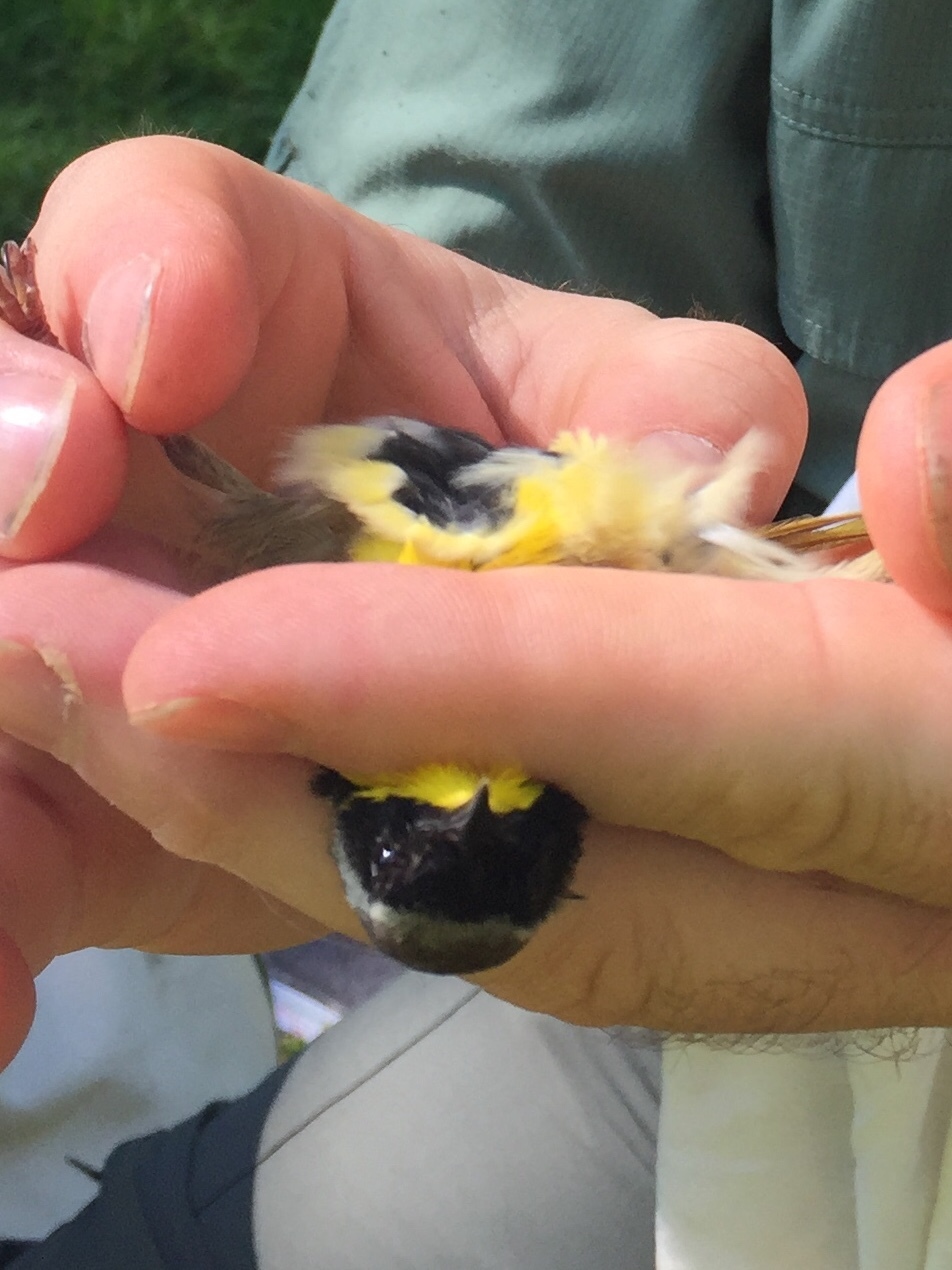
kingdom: Animalia
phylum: Chordata
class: Aves
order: Passeriformes
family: Parulidae
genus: Geothlypis
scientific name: Geothlypis trichas
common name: Common yellowthroat
